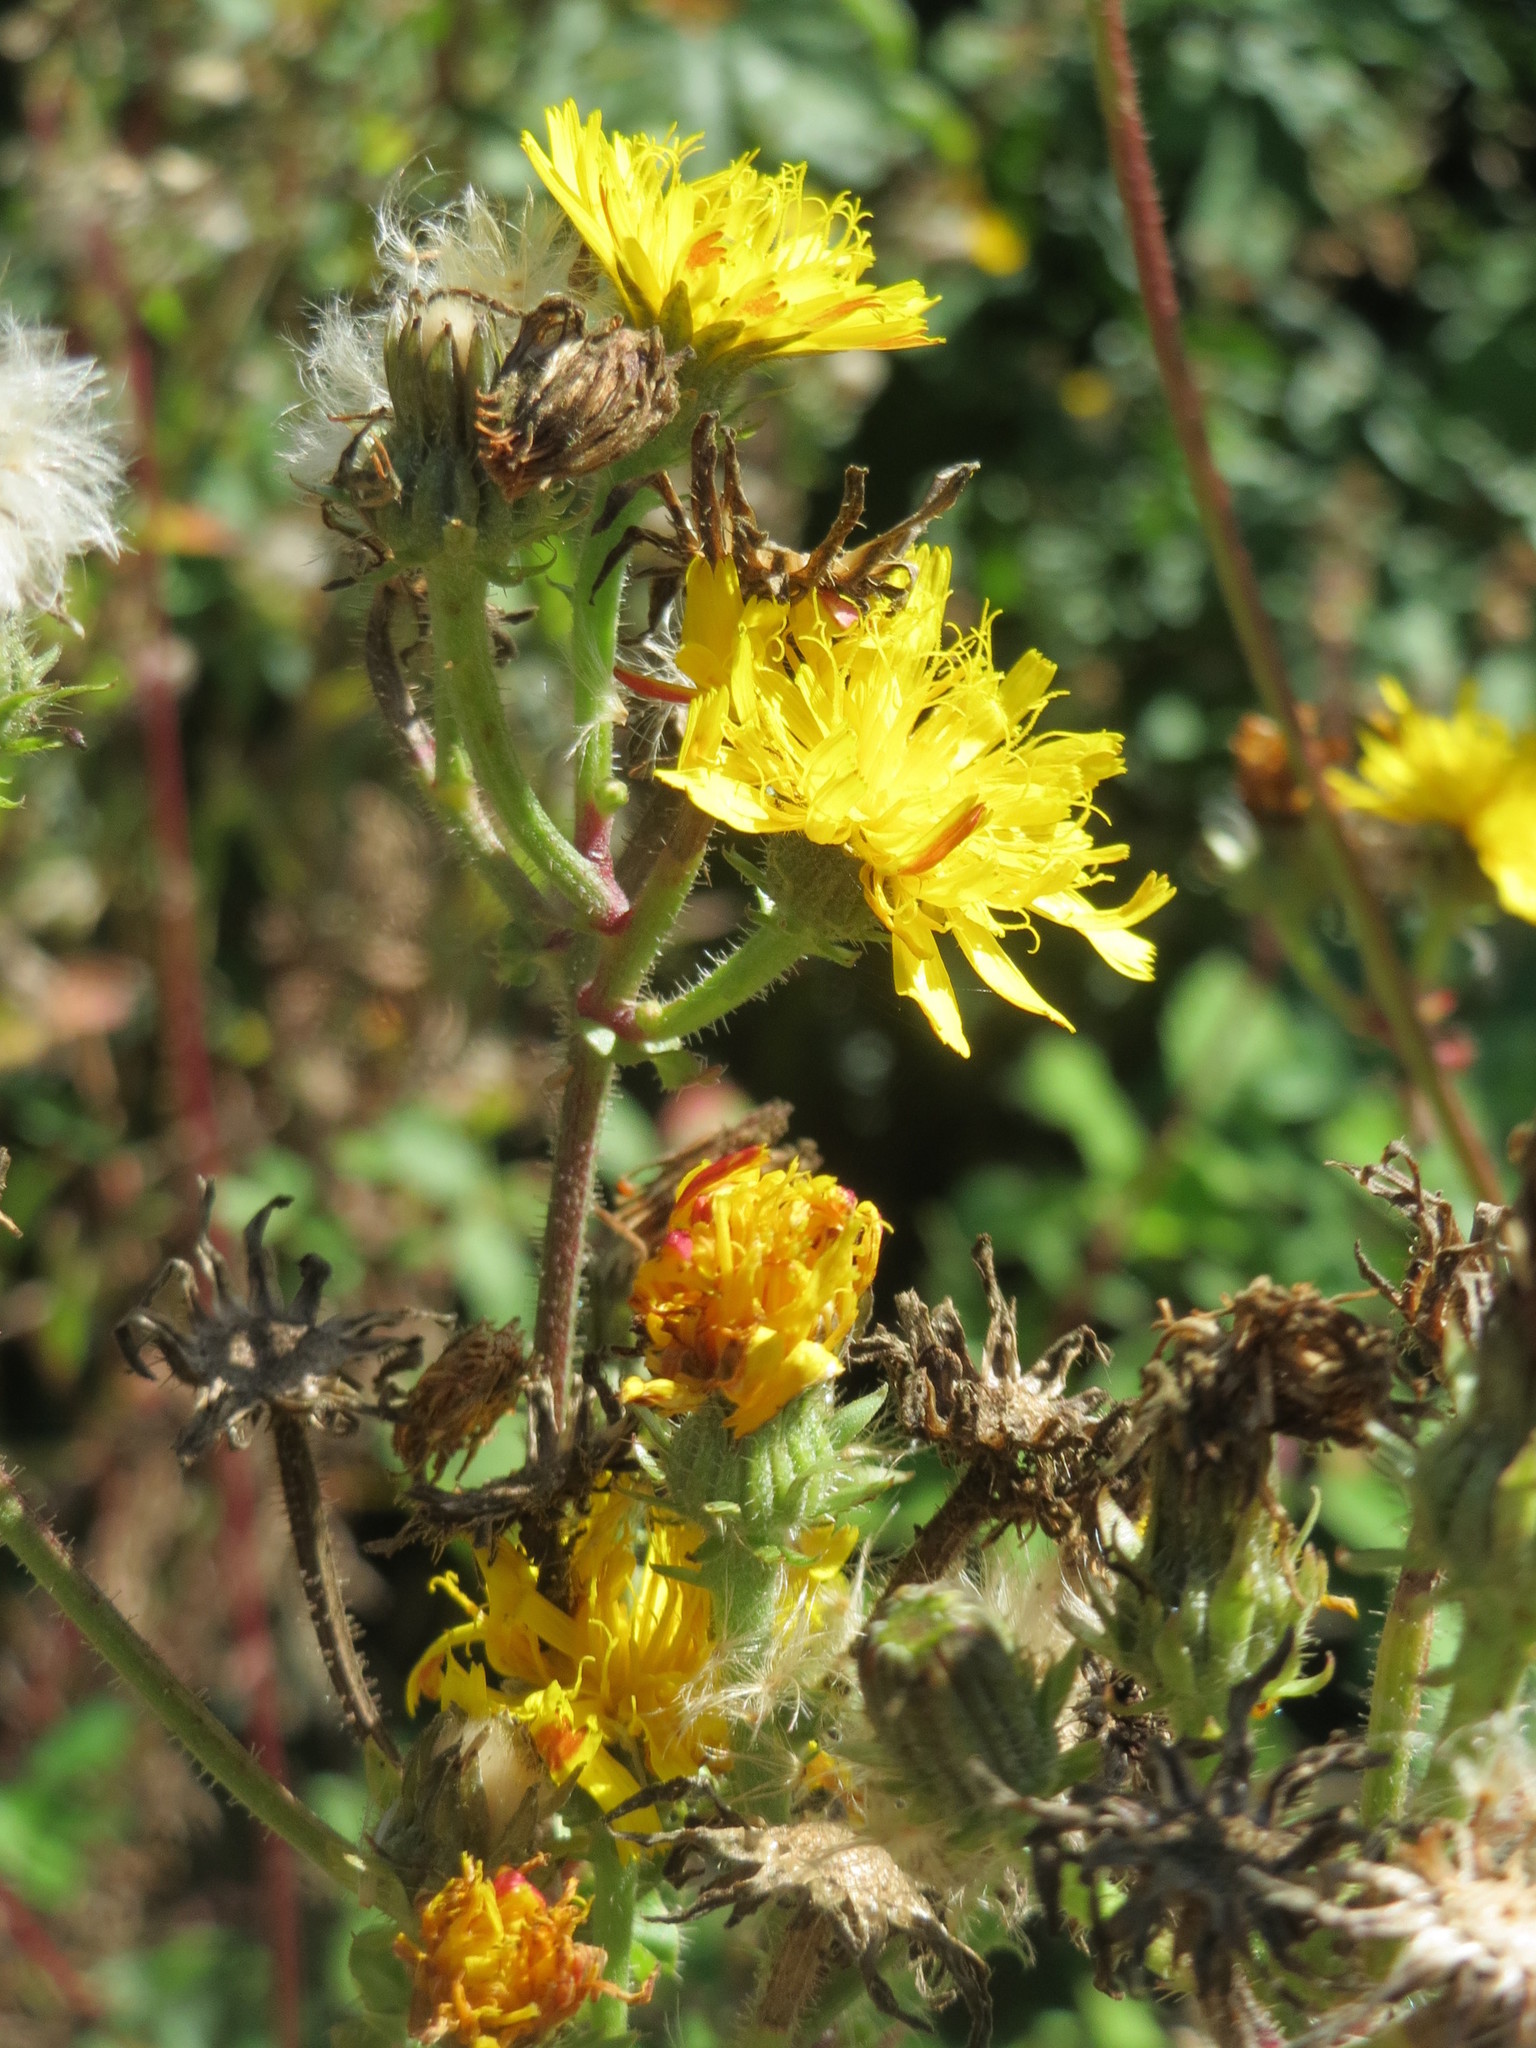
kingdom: Plantae
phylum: Tracheophyta
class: Magnoliopsida
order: Asterales
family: Asteraceae
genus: Picris
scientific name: Picris hieracioides
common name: Hawkweed oxtongue
